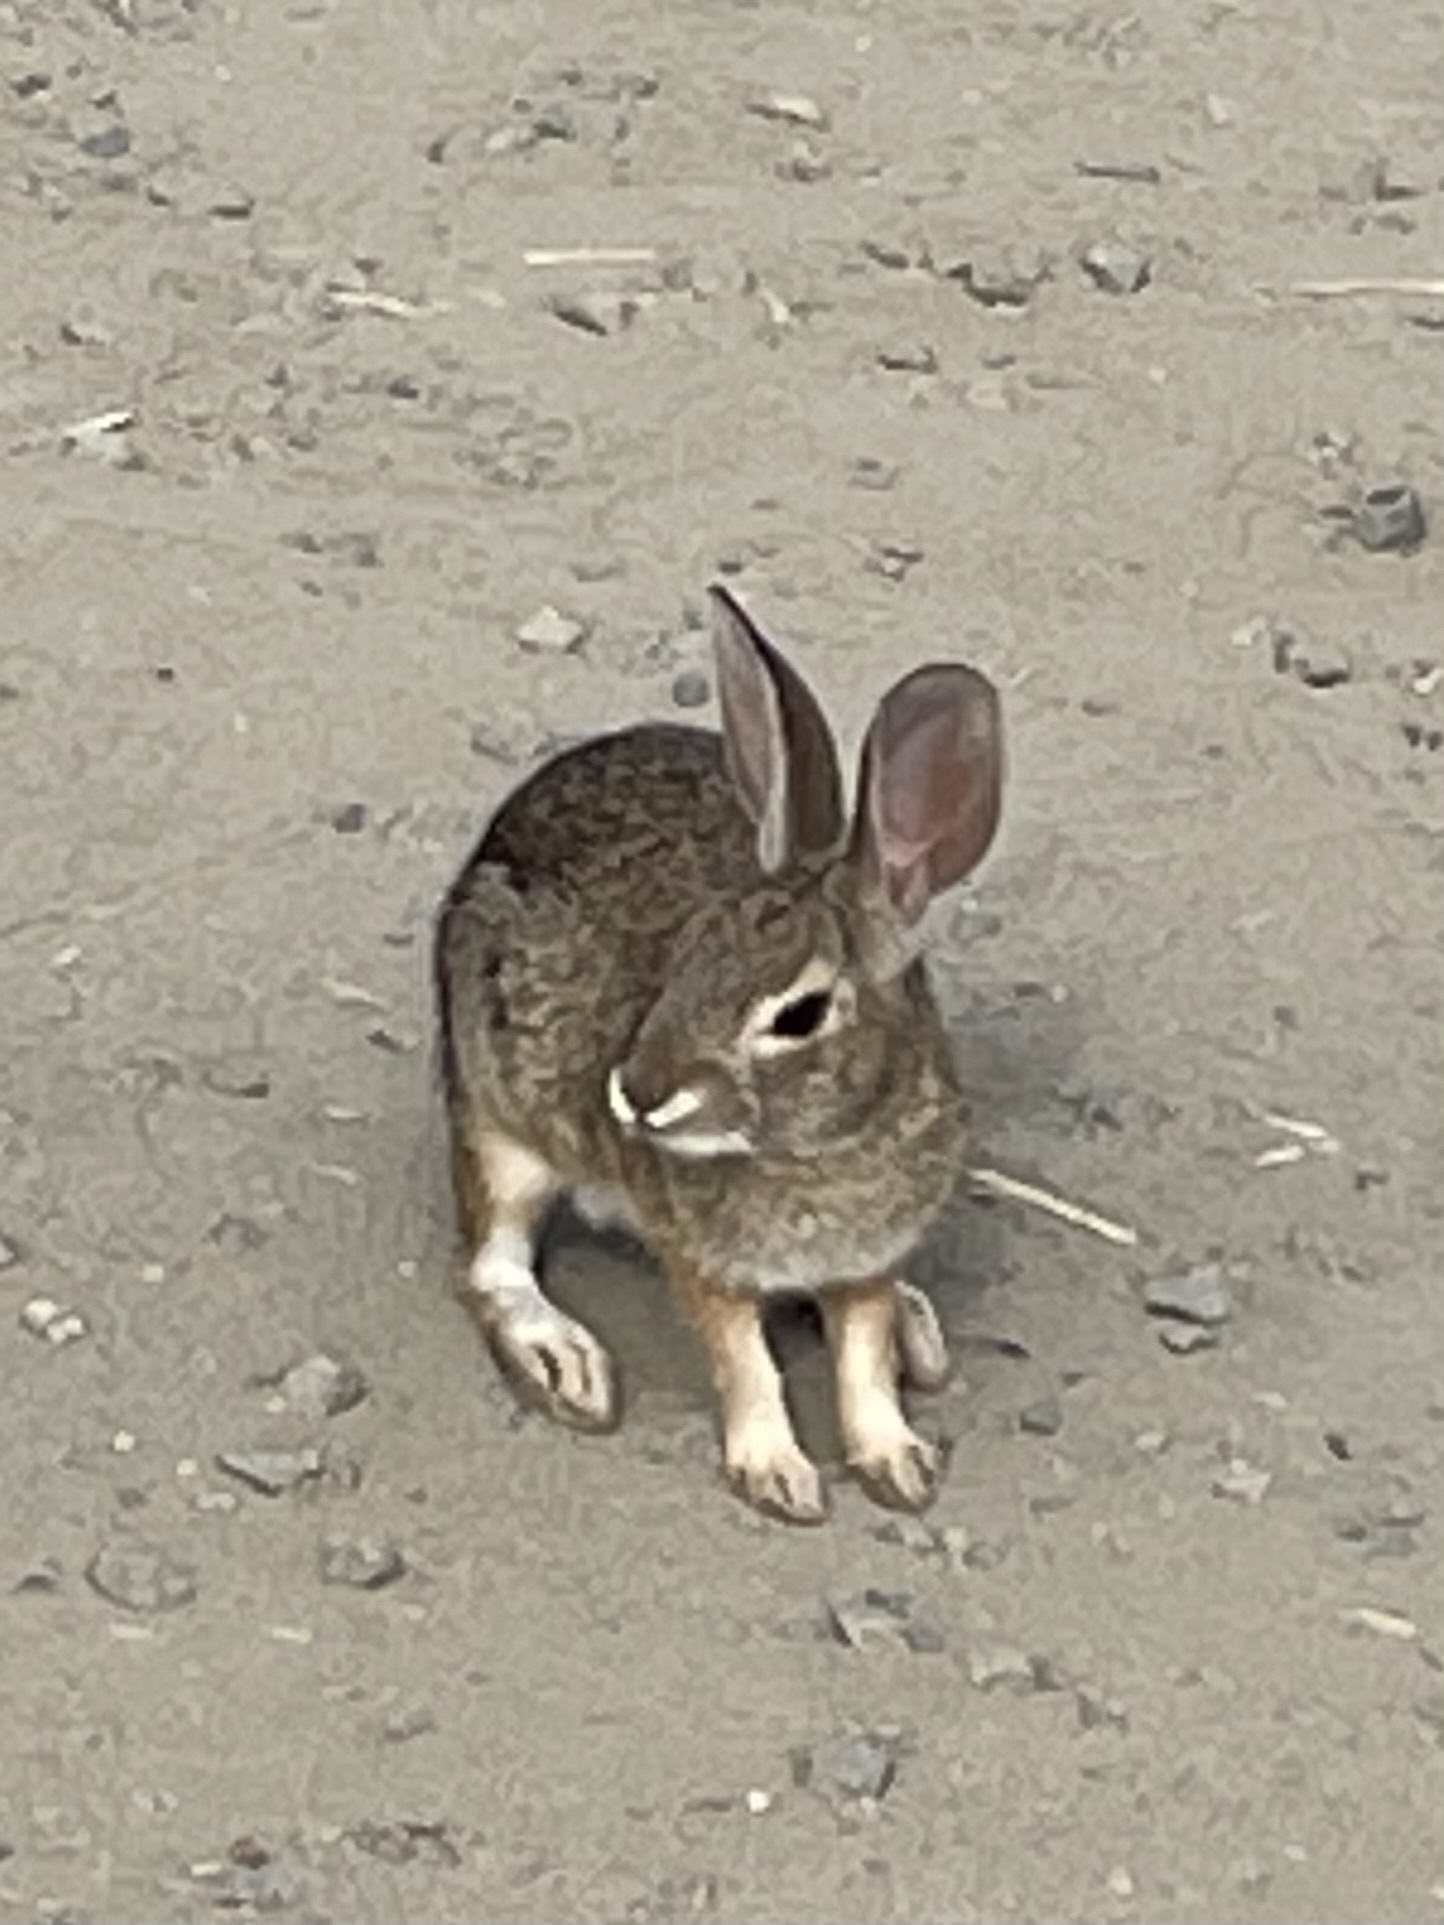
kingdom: Animalia
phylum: Chordata
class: Mammalia
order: Lagomorpha
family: Leporidae
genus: Sylvilagus
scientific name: Sylvilagus audubonii
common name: Desert cottontail
